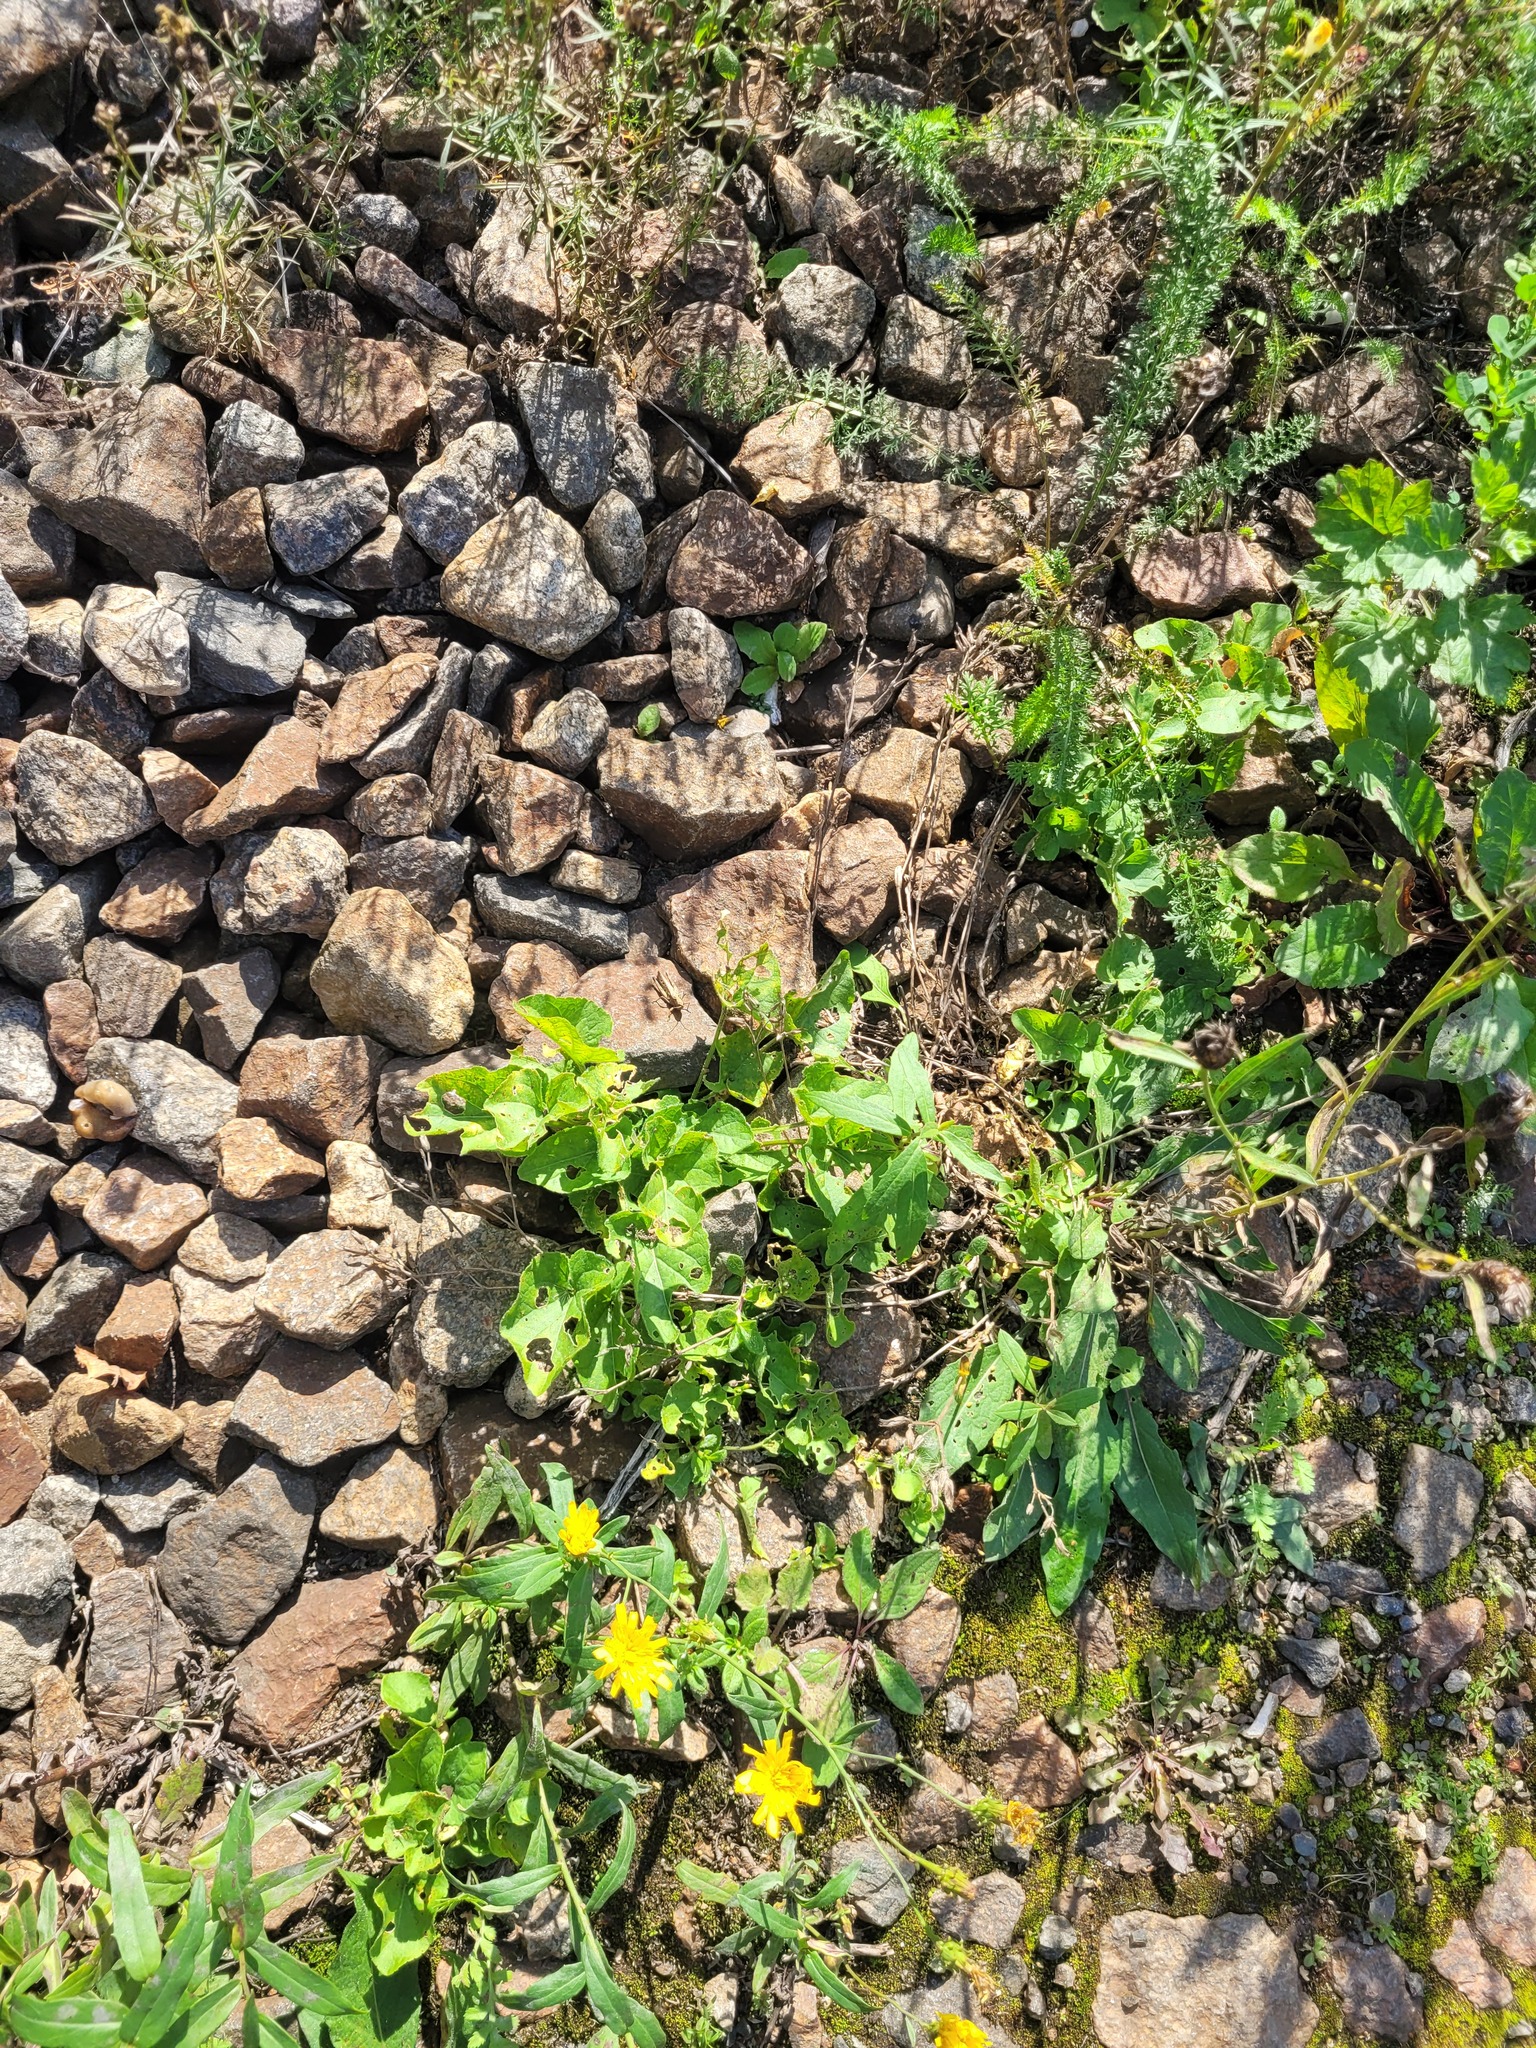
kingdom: Plantae
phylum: Tracheophyta
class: Magnoliopsida
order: Malpighiales
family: Violaceae
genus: Viola
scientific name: Viola hirta
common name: Hairy violet
